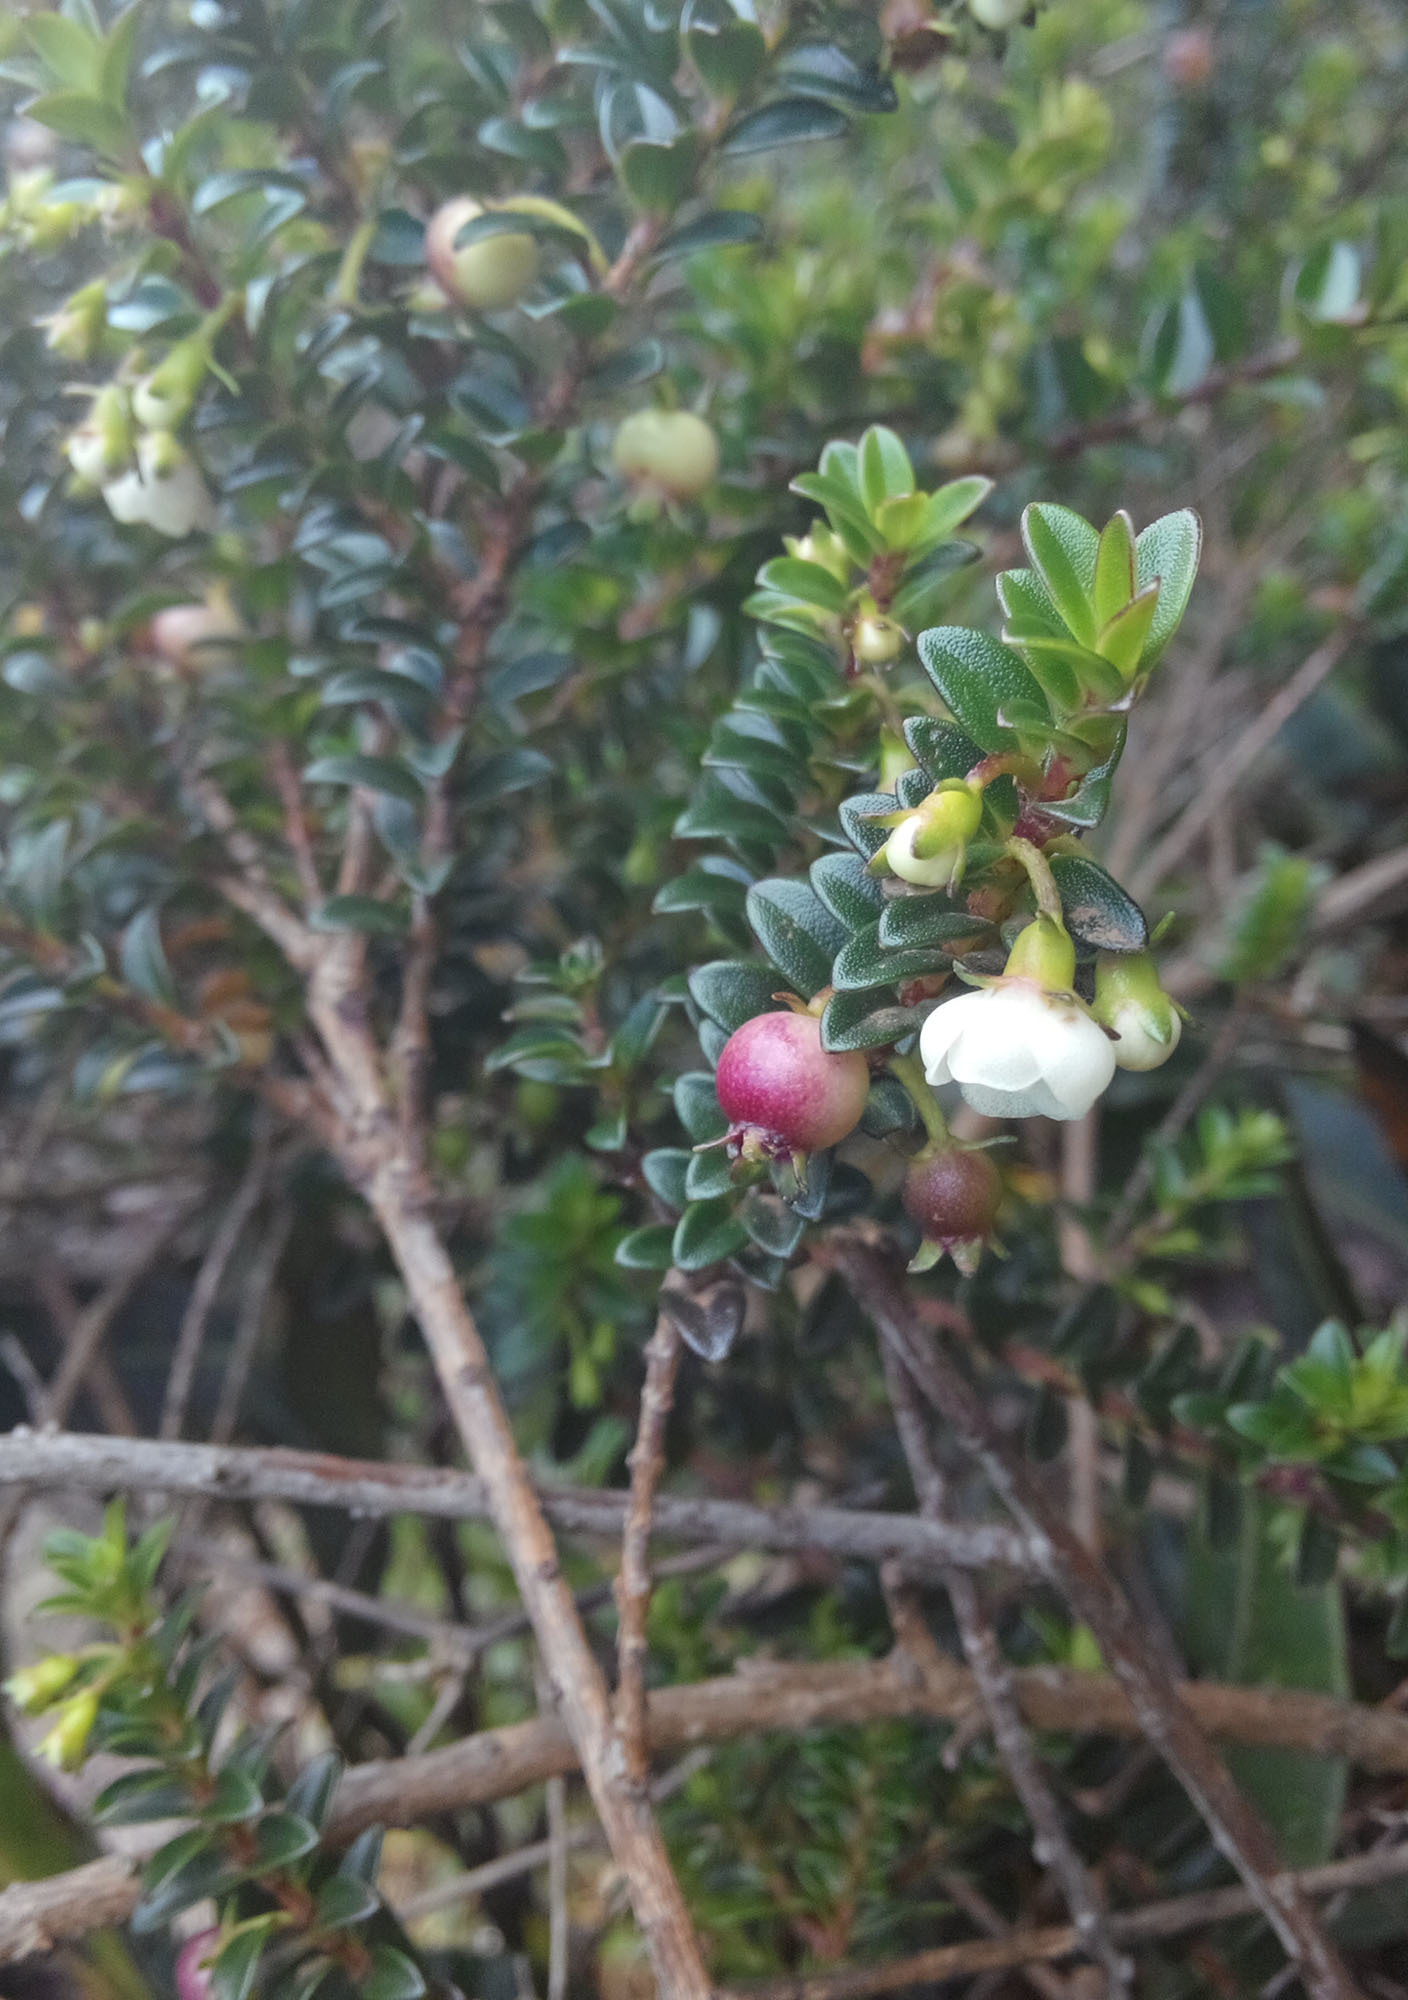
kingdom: Plantae
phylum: Tracheophyta
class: Magnoliopsida
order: Myrtales
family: Myrtaceae
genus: Ugni
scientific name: Ugni myricoides
